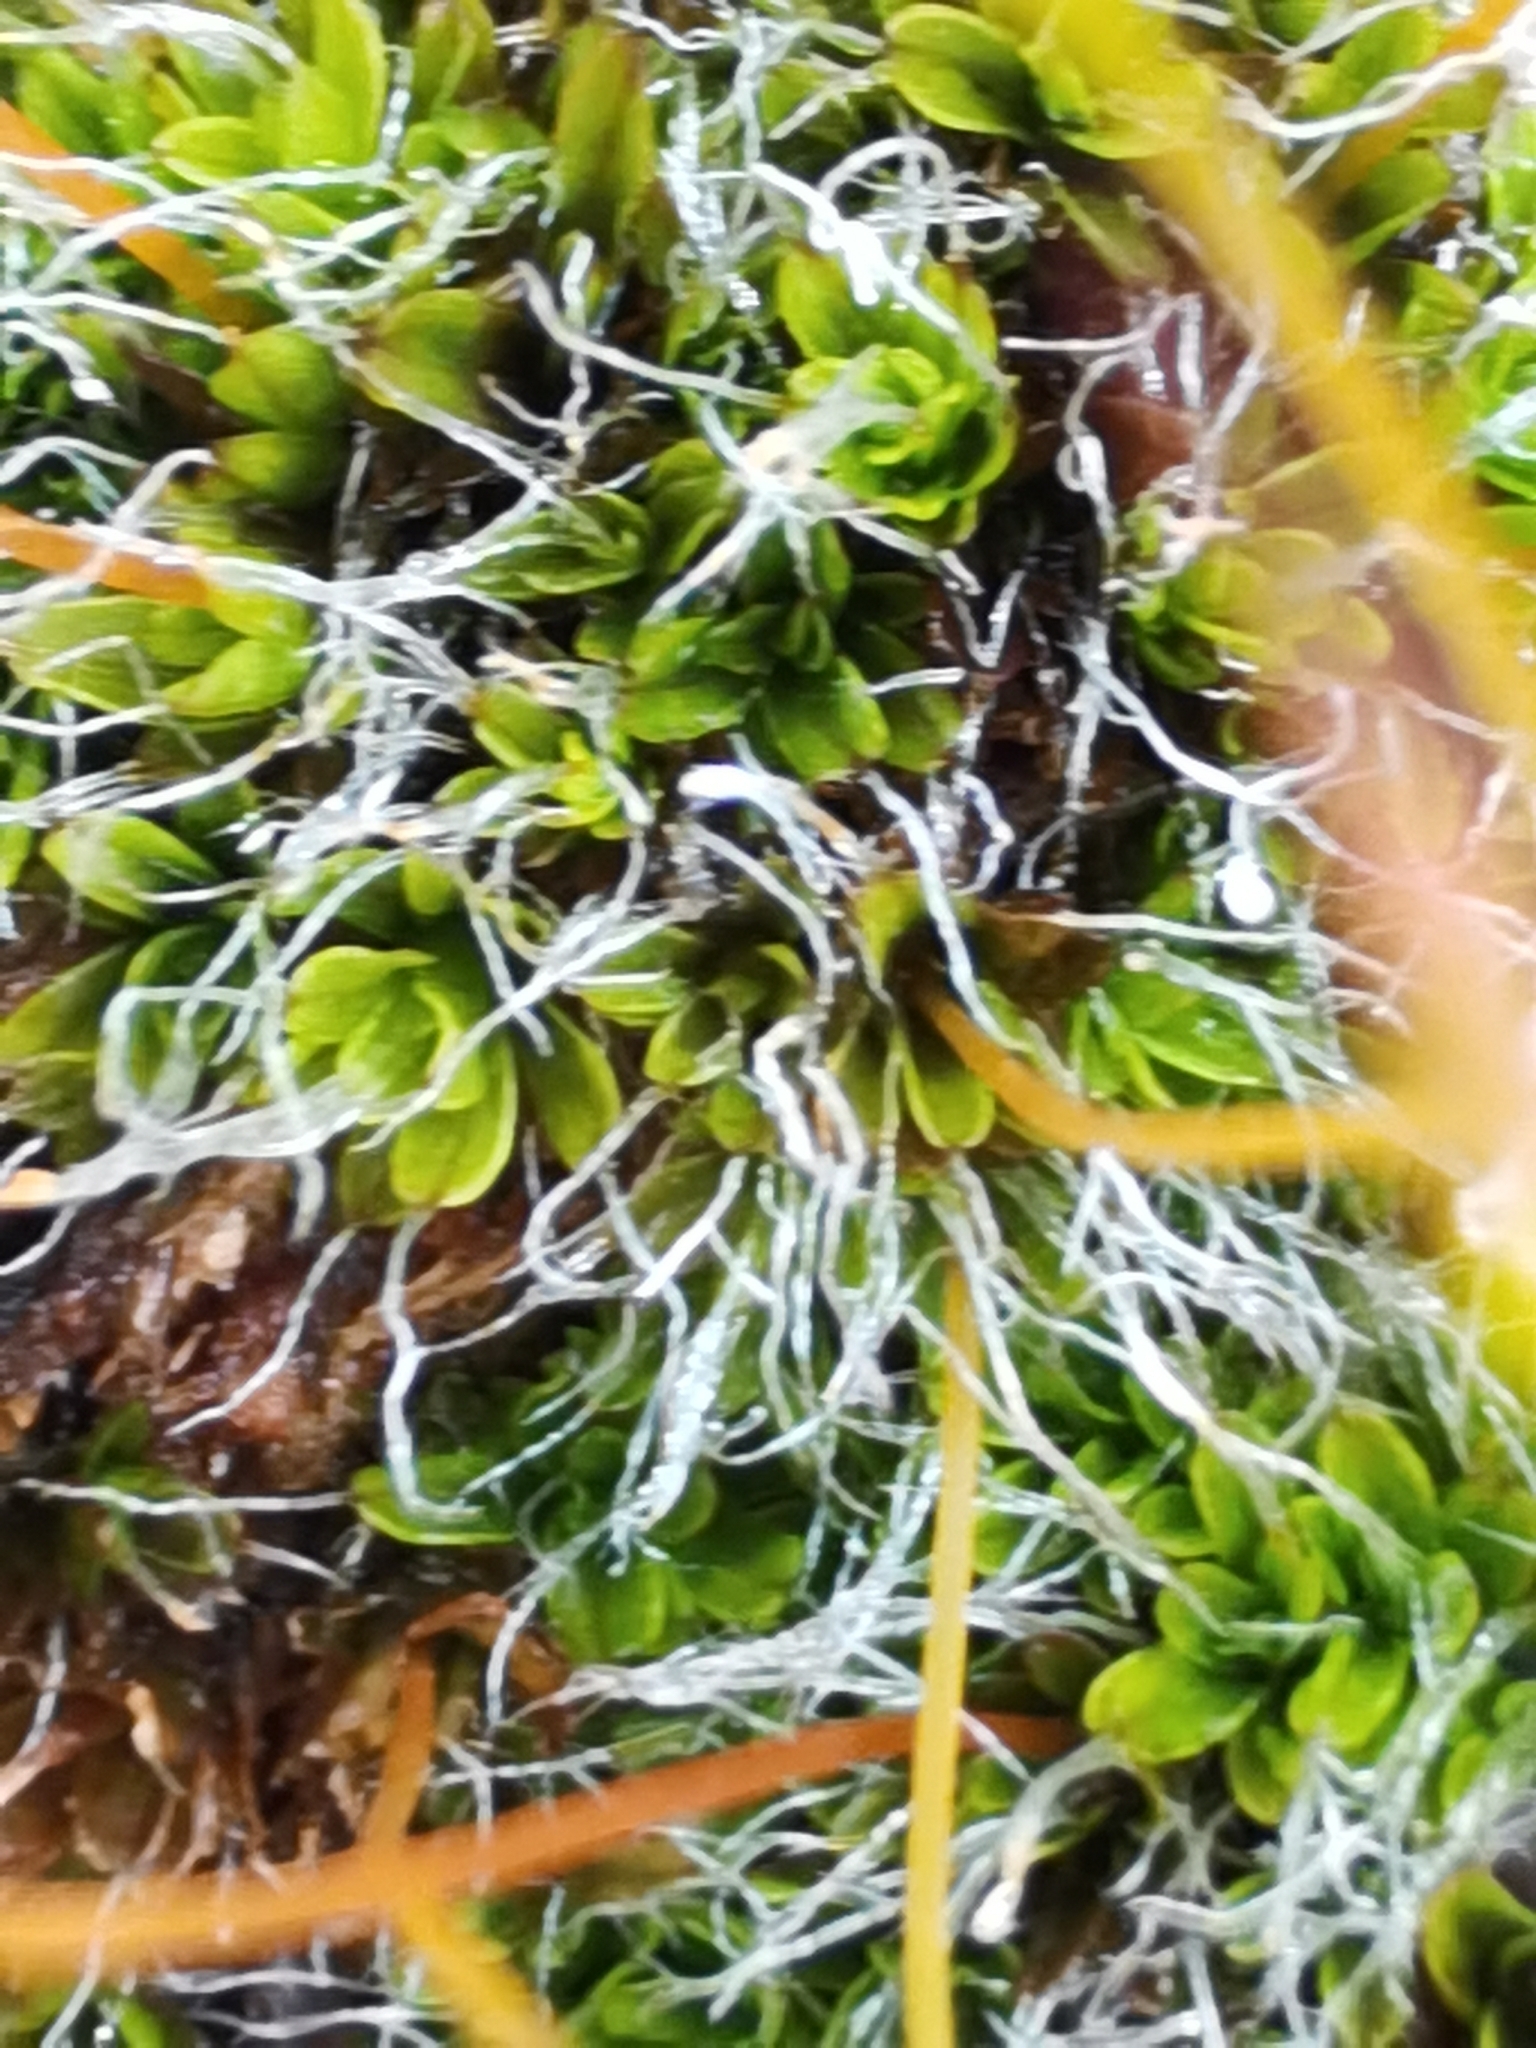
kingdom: Plantae
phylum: Bryophyta
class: Bryopsida
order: Pottiales
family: Pottiaceae
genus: Tortula
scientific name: Tortula muralis
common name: Wall screw-moss
